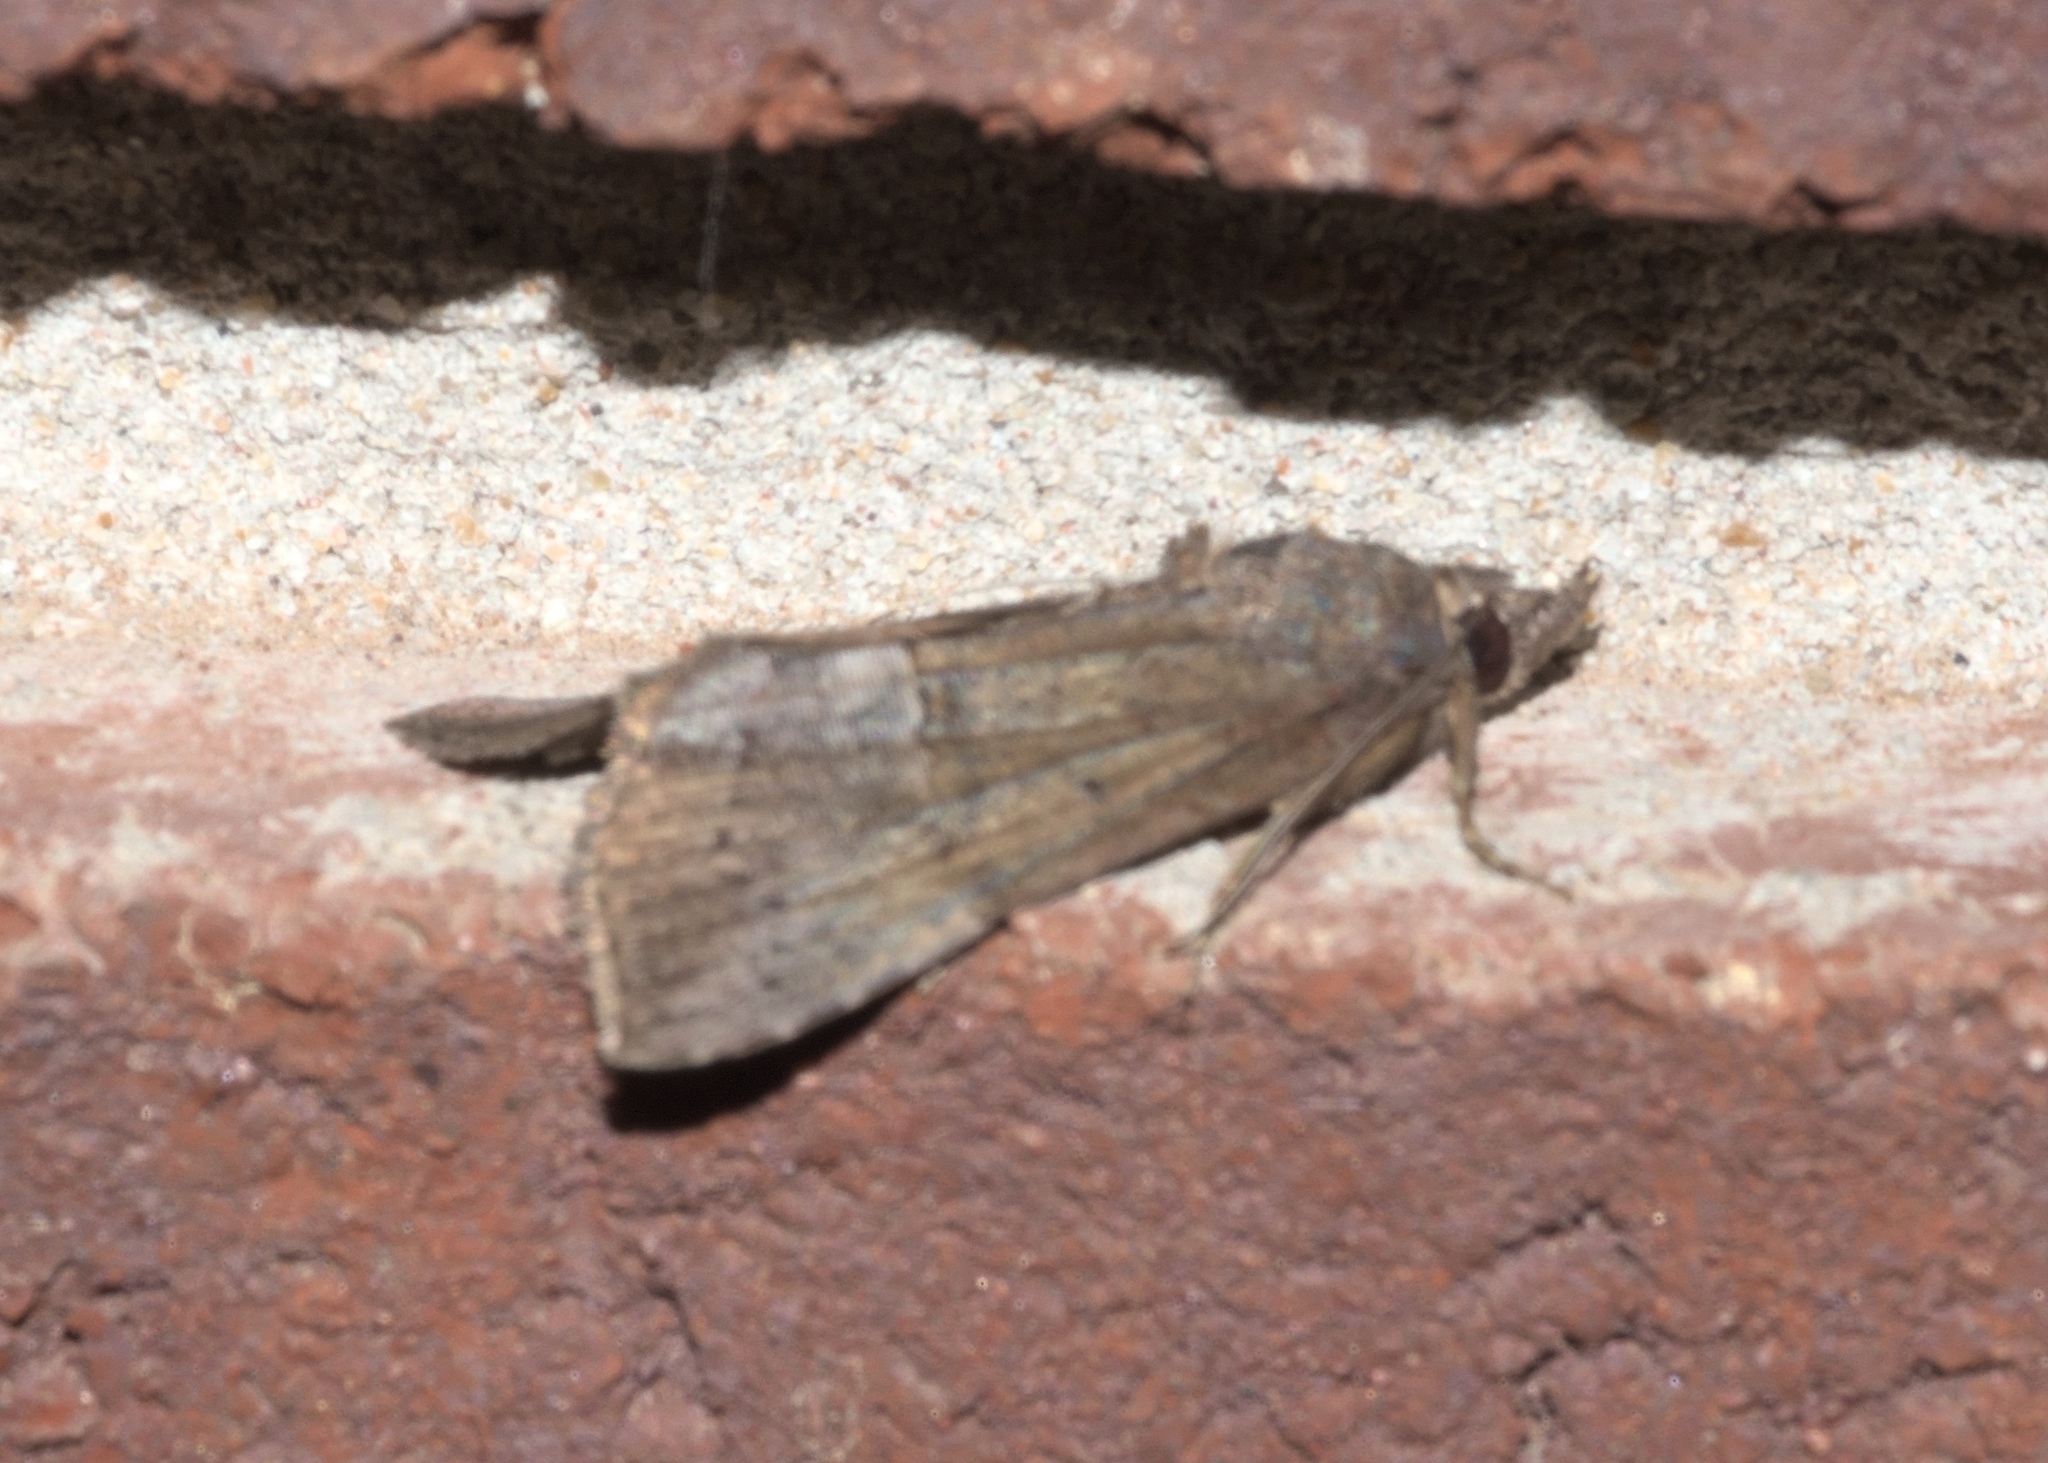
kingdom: Animalia
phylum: Arthropoda
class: Insecta
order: Lepidoptera
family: Erebidae
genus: Hypena
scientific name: Hypena scabra
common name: Green cloverworm
